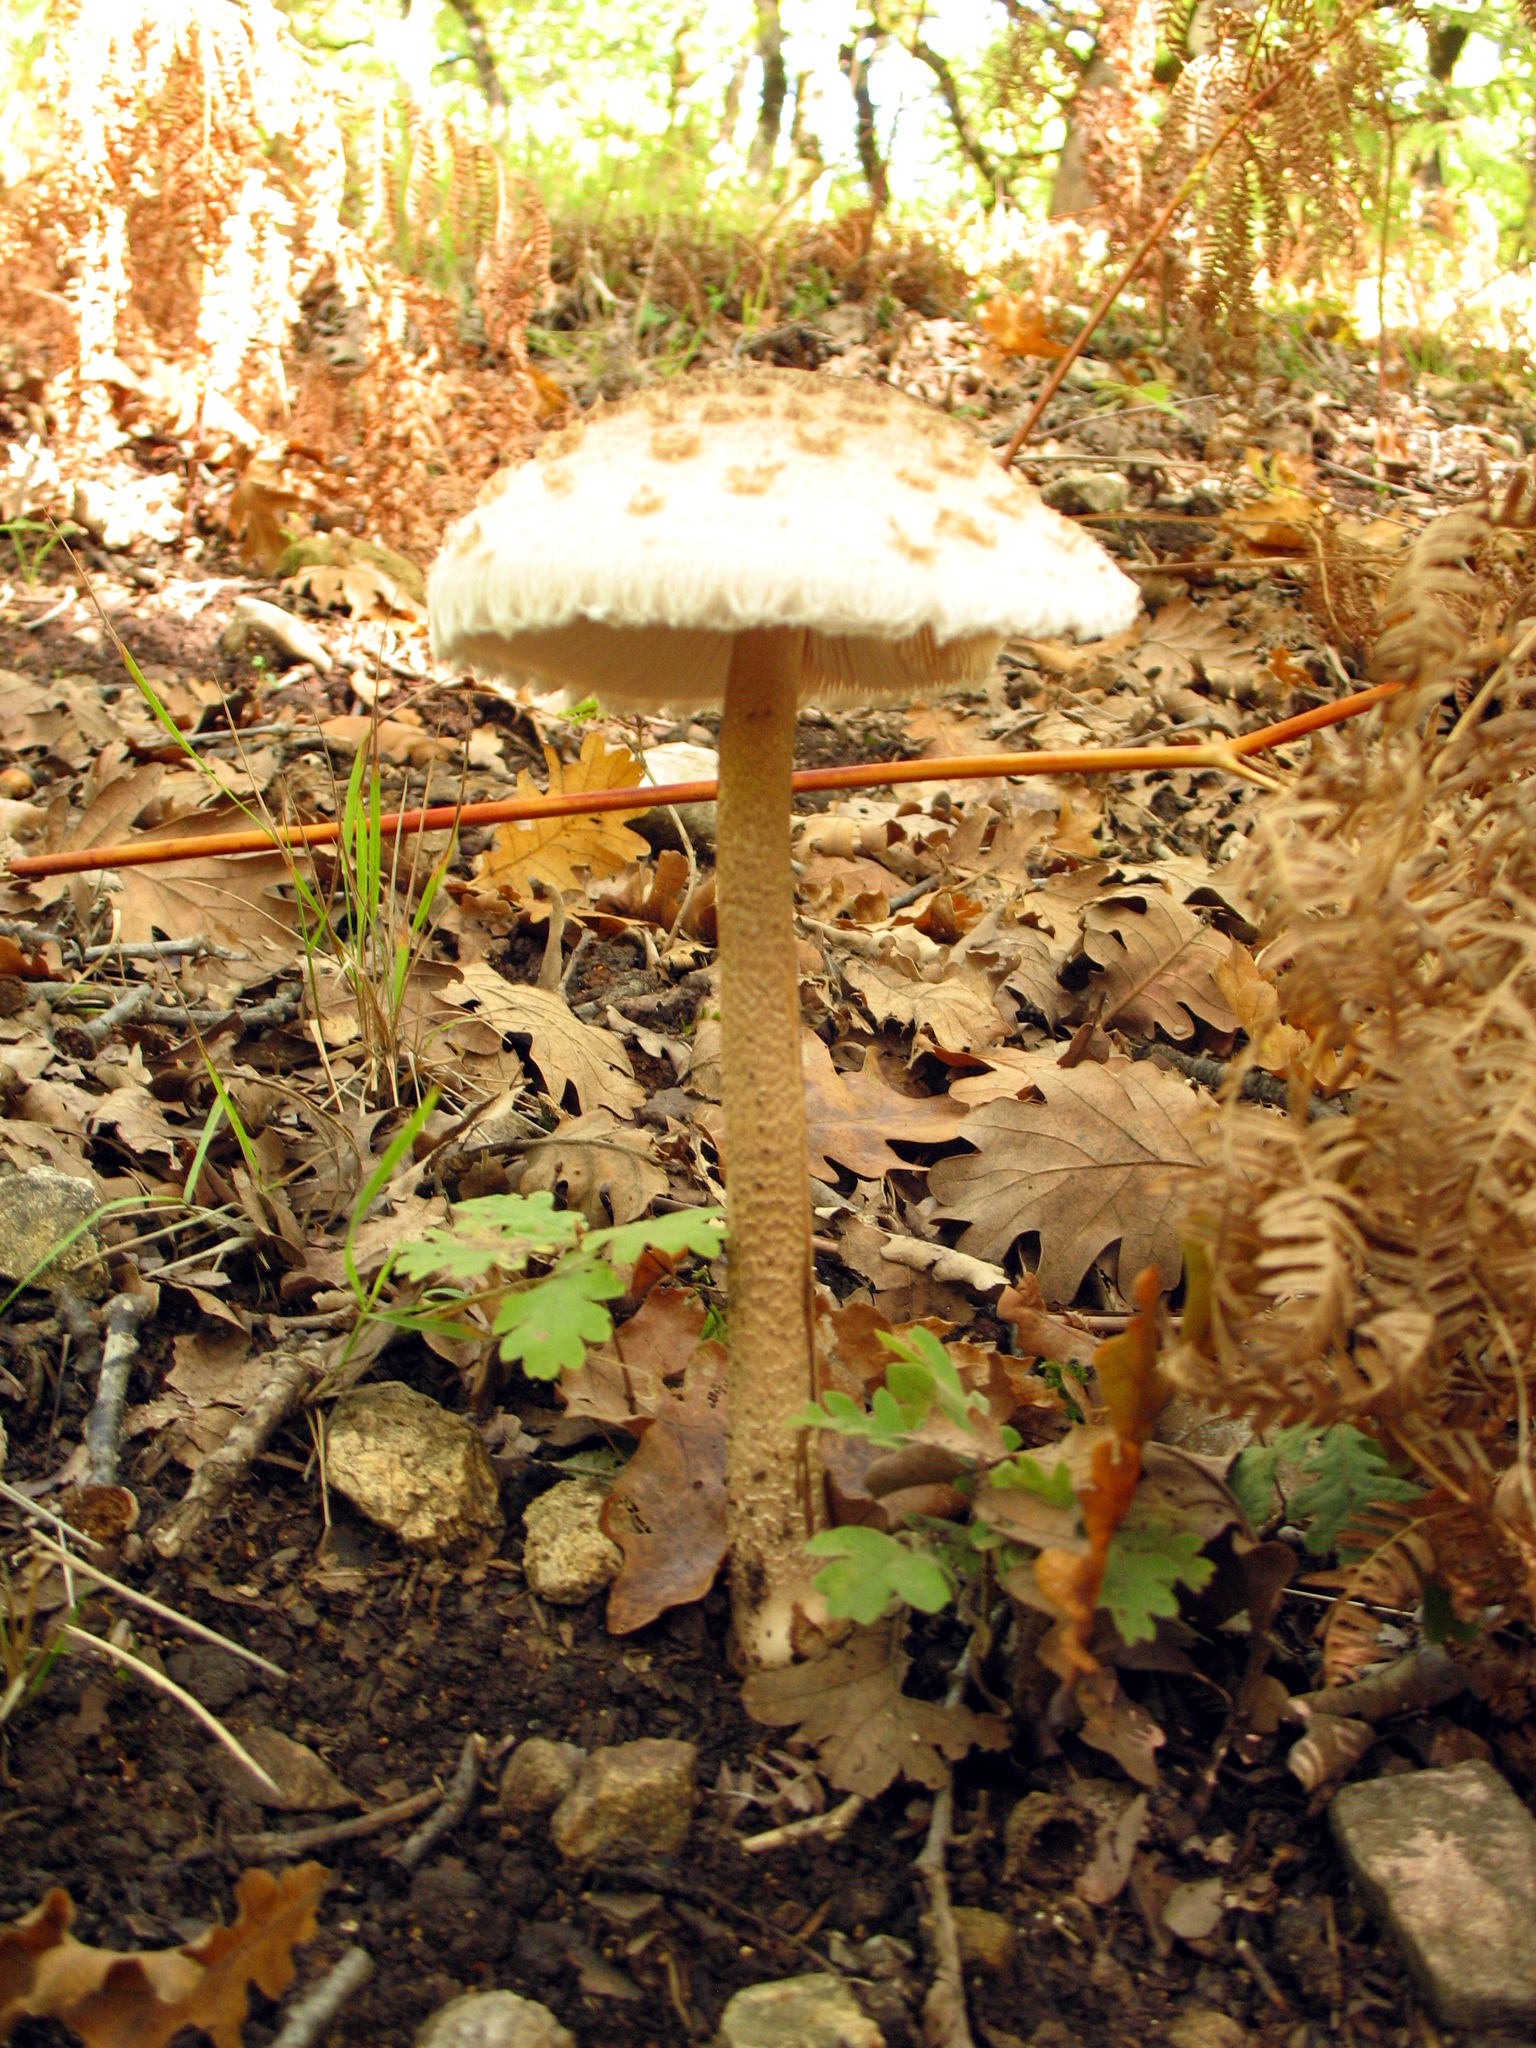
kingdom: Fungi
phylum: Basidiomycota
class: Agaricomycetes
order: Agaricales
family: Agaricaceae
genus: Macrolepiota
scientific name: Macrolepiota procera
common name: Parasol
